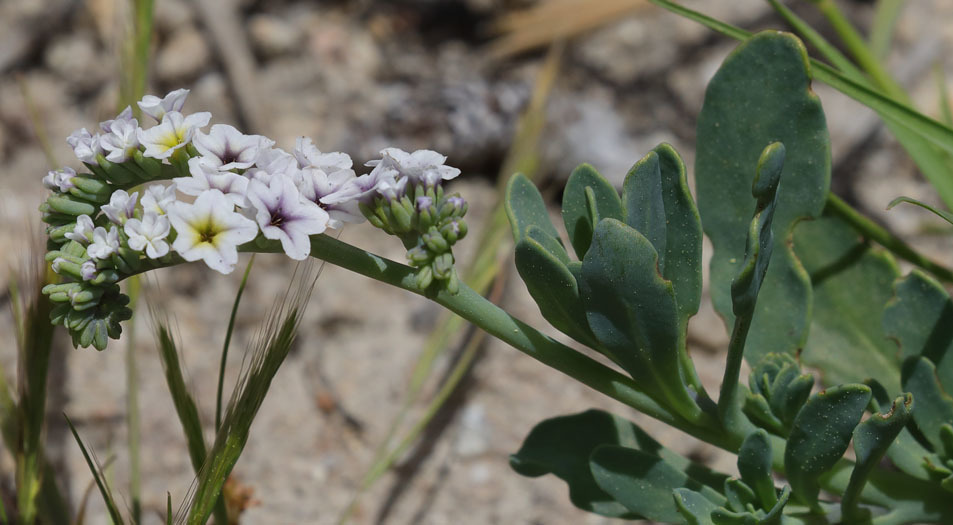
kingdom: Plantae
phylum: Tracheophyta
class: Magnoliopsida
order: Boraginales
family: Heliotropiaceae
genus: Heliotropium
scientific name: Heliotropium curassavicum
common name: Seaside heliotrope
